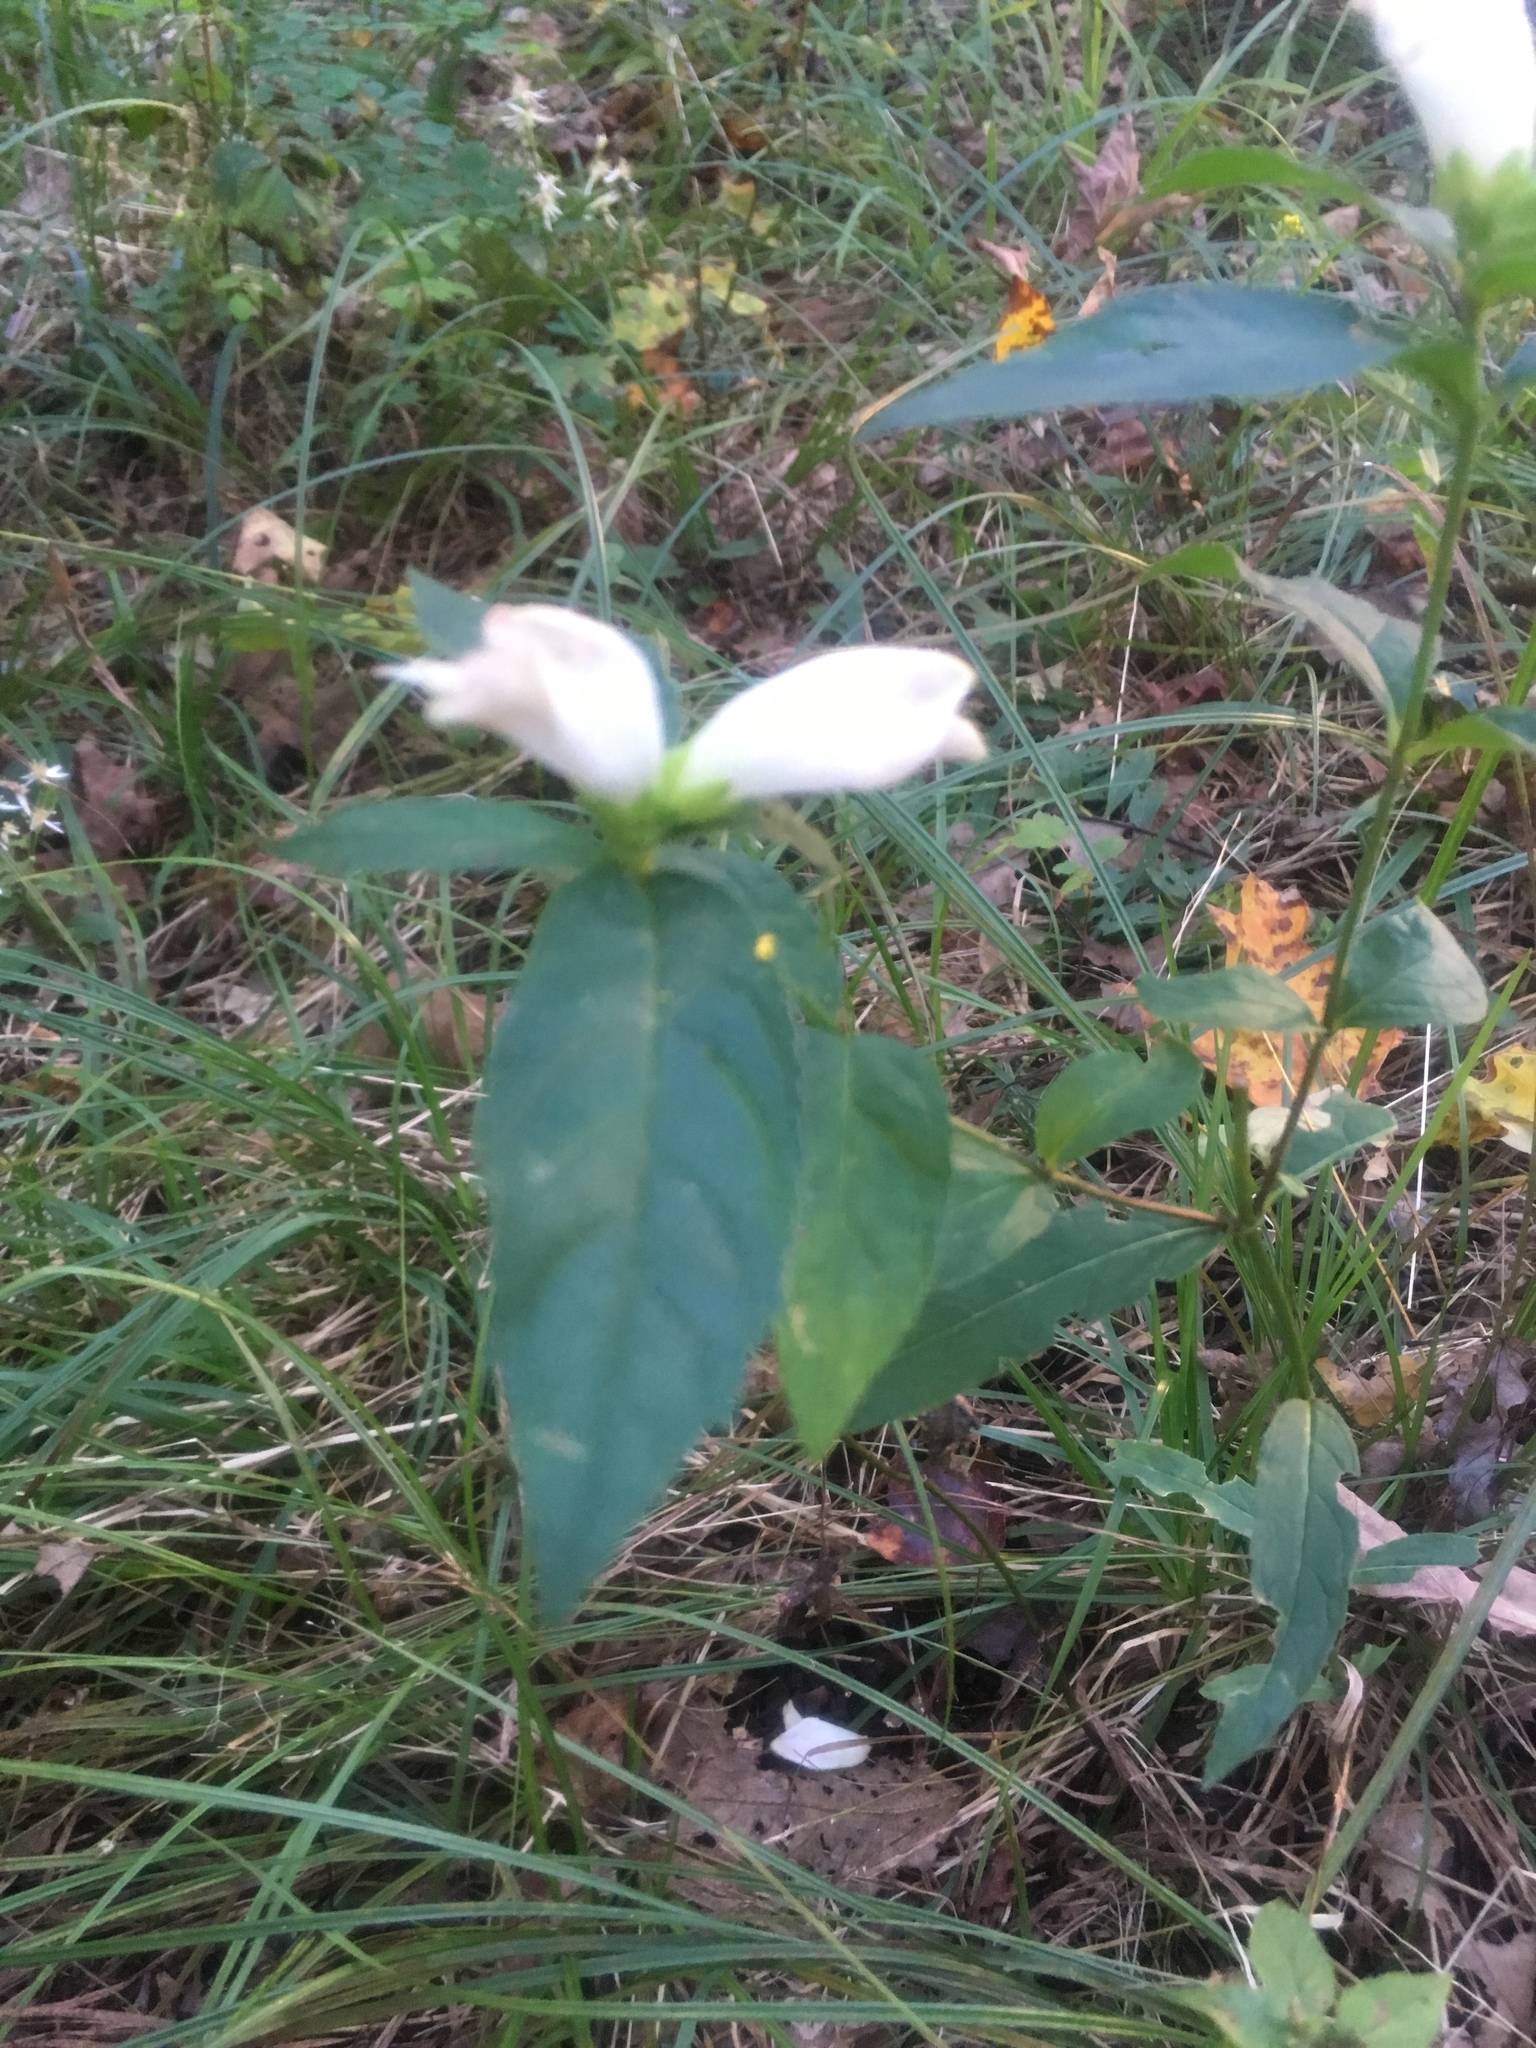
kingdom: Plantae
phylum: Tracheophyta
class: Magnoliopsida
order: Lamiales
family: Plantaginaceae
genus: Chelone
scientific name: Chelone glabra
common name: Snakehead
